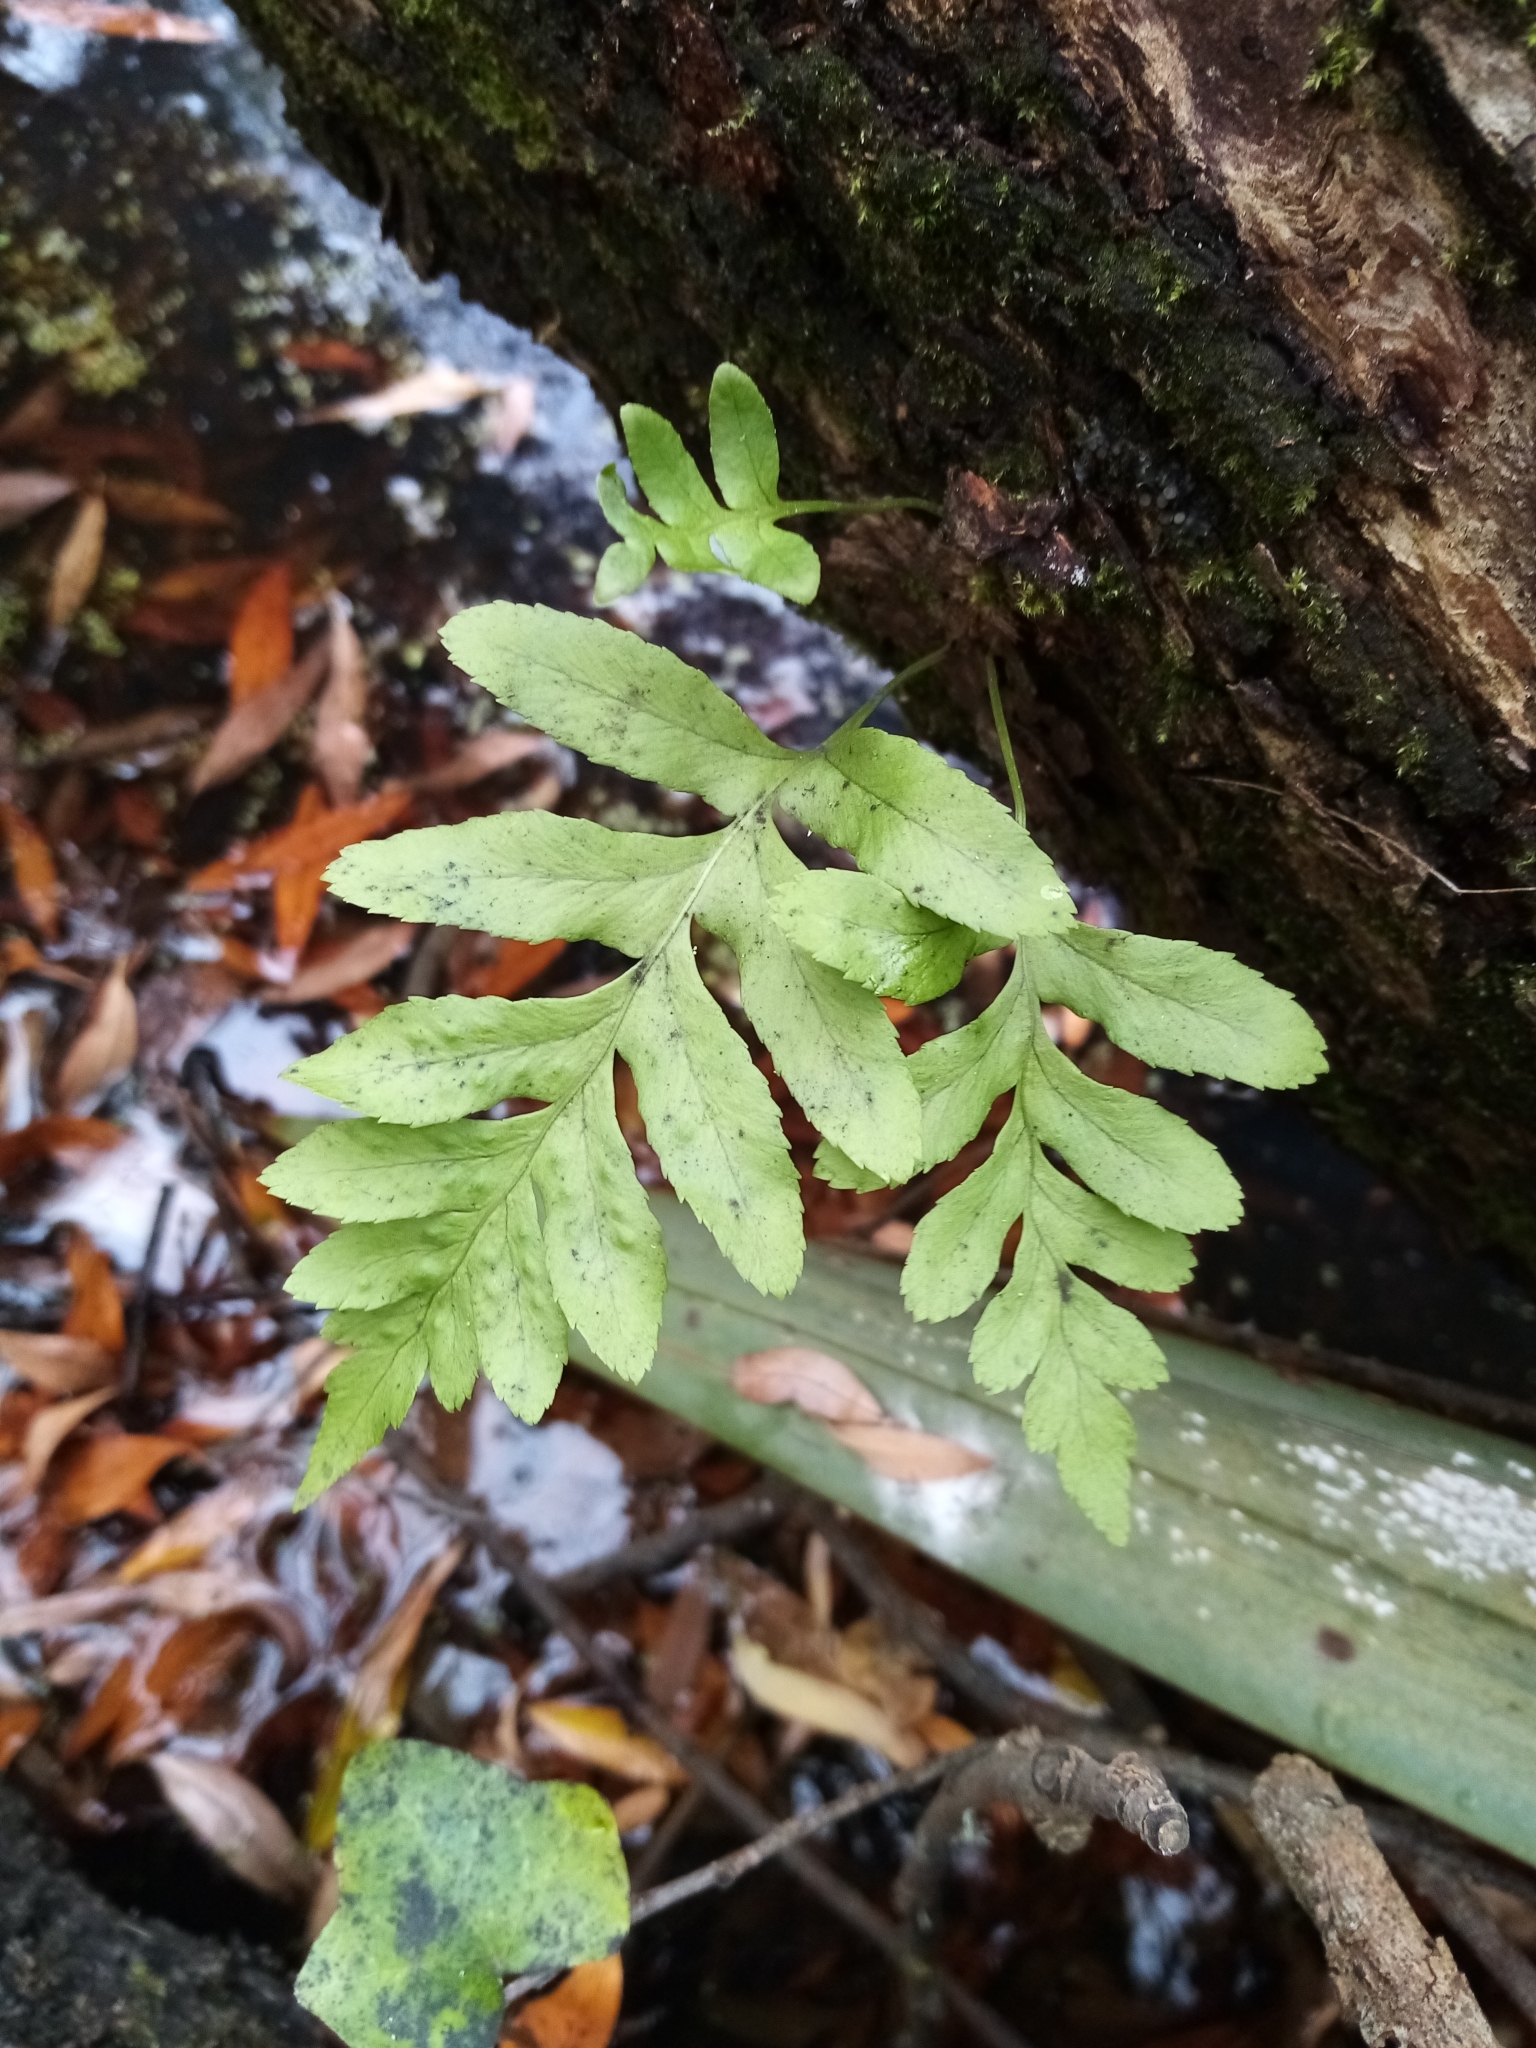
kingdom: Plantae
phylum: Tracheophyta
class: Polypodiopsida
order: Polypodiales
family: Polypodiaceae
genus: Polypodium
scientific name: Polypodium vulgare
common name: Common polypody
